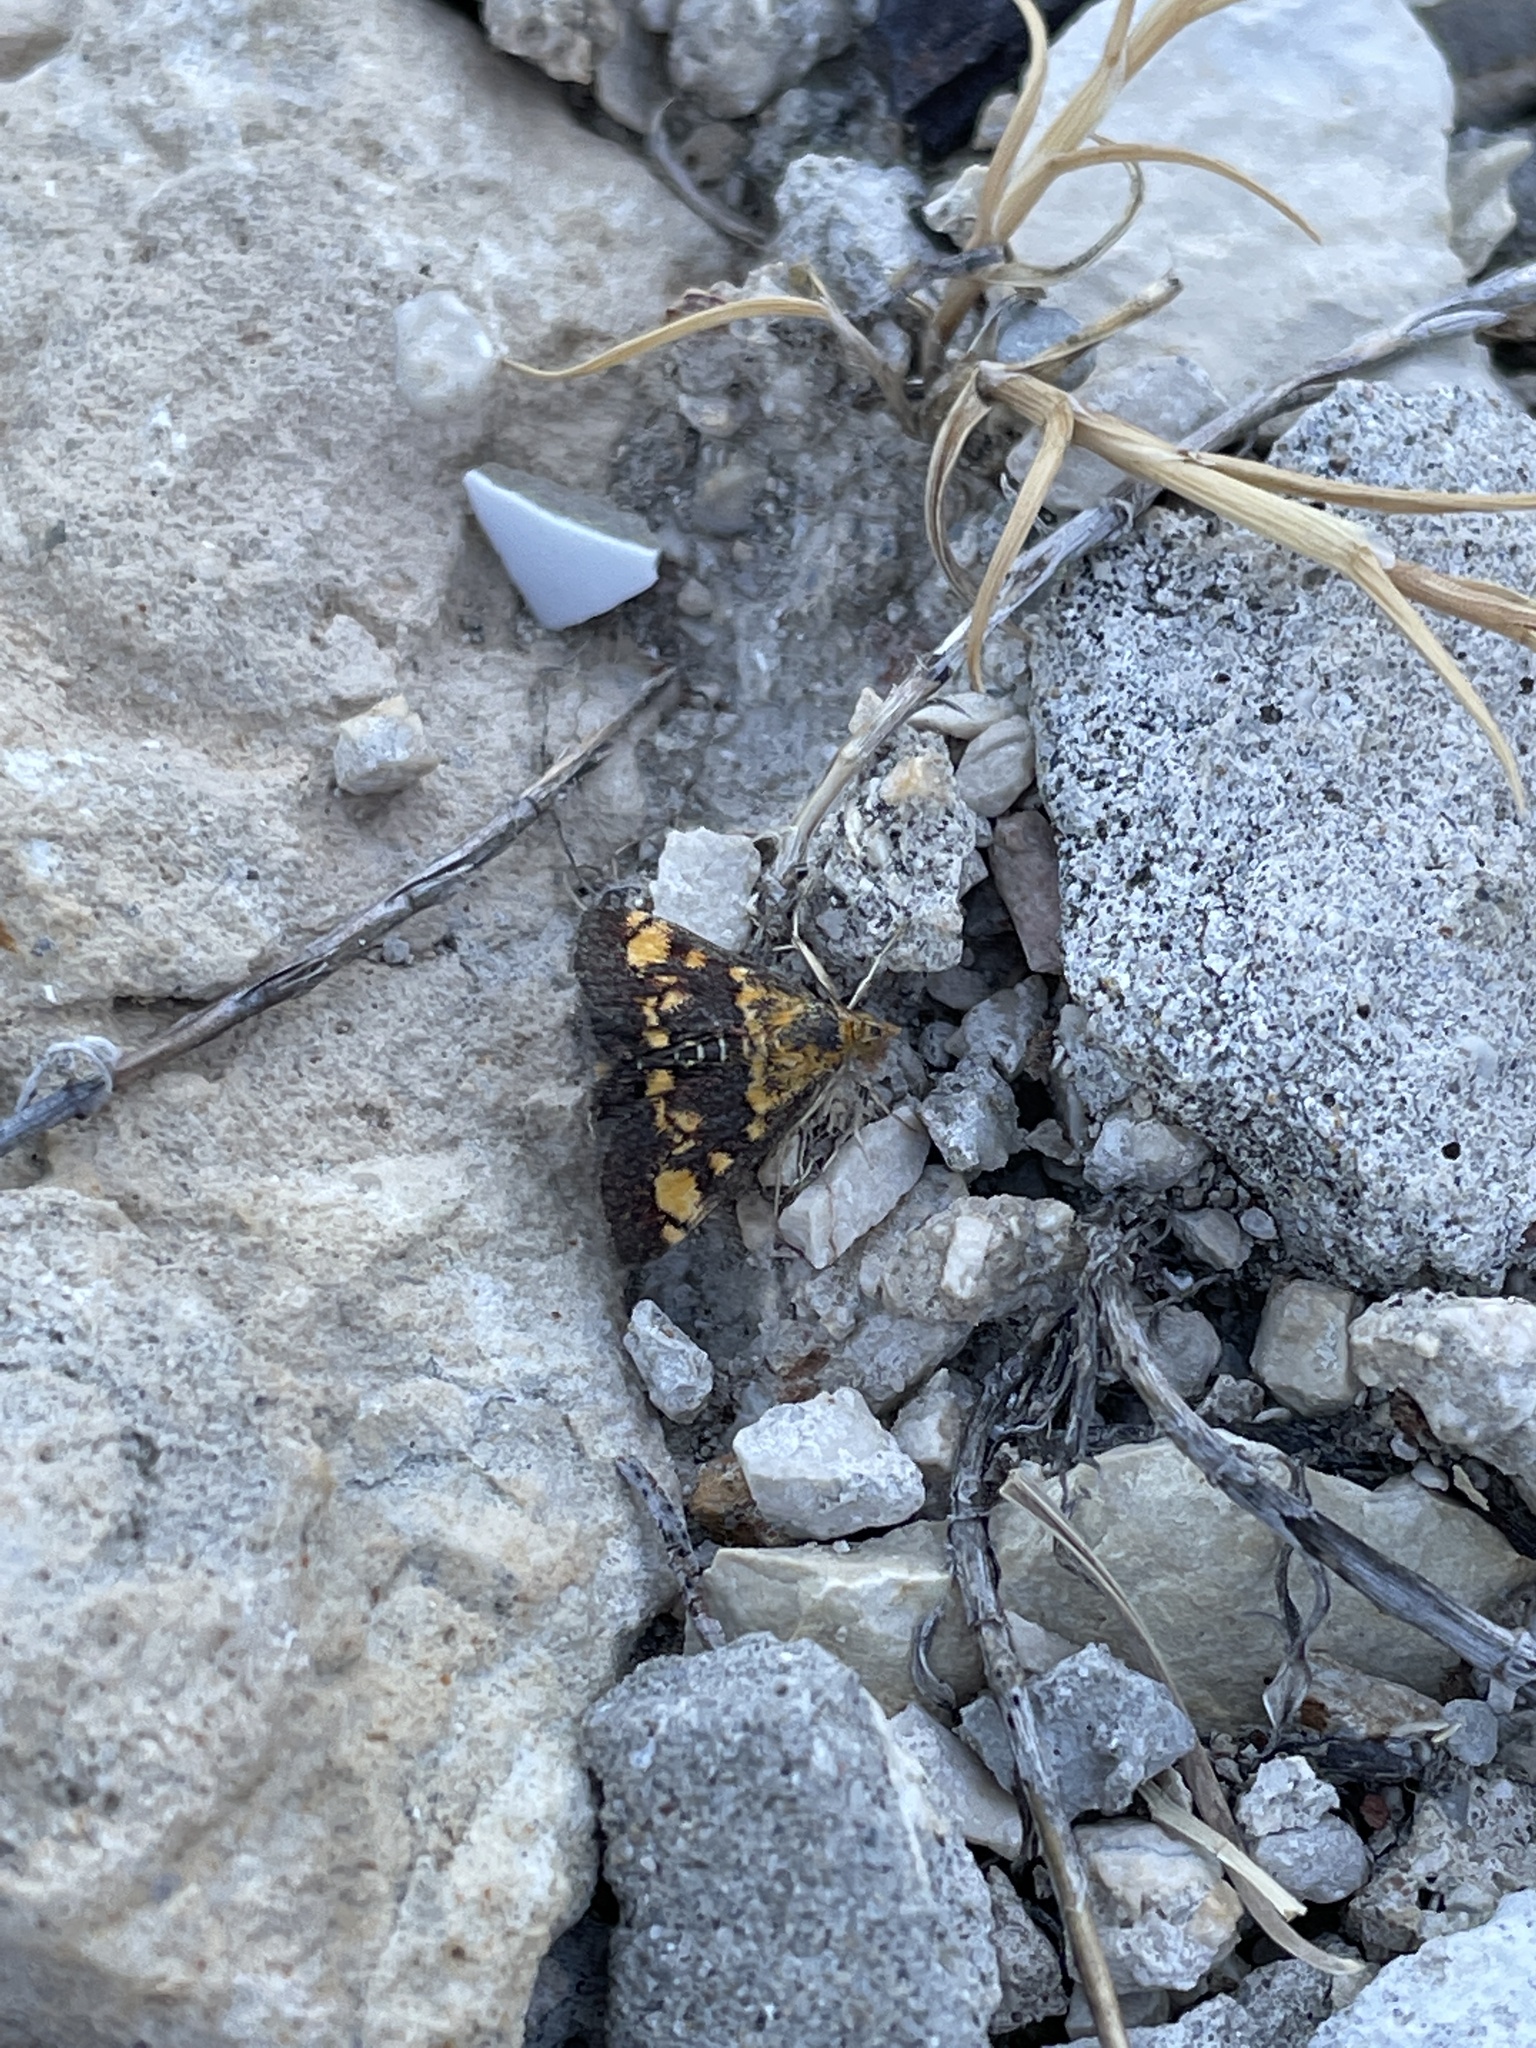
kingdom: Animalia
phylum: Arthropoda
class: Insecta
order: Lepidoptera
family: Crambidae
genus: Pyrausta
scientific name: Pyrausta aurata
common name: Small purple & gold
